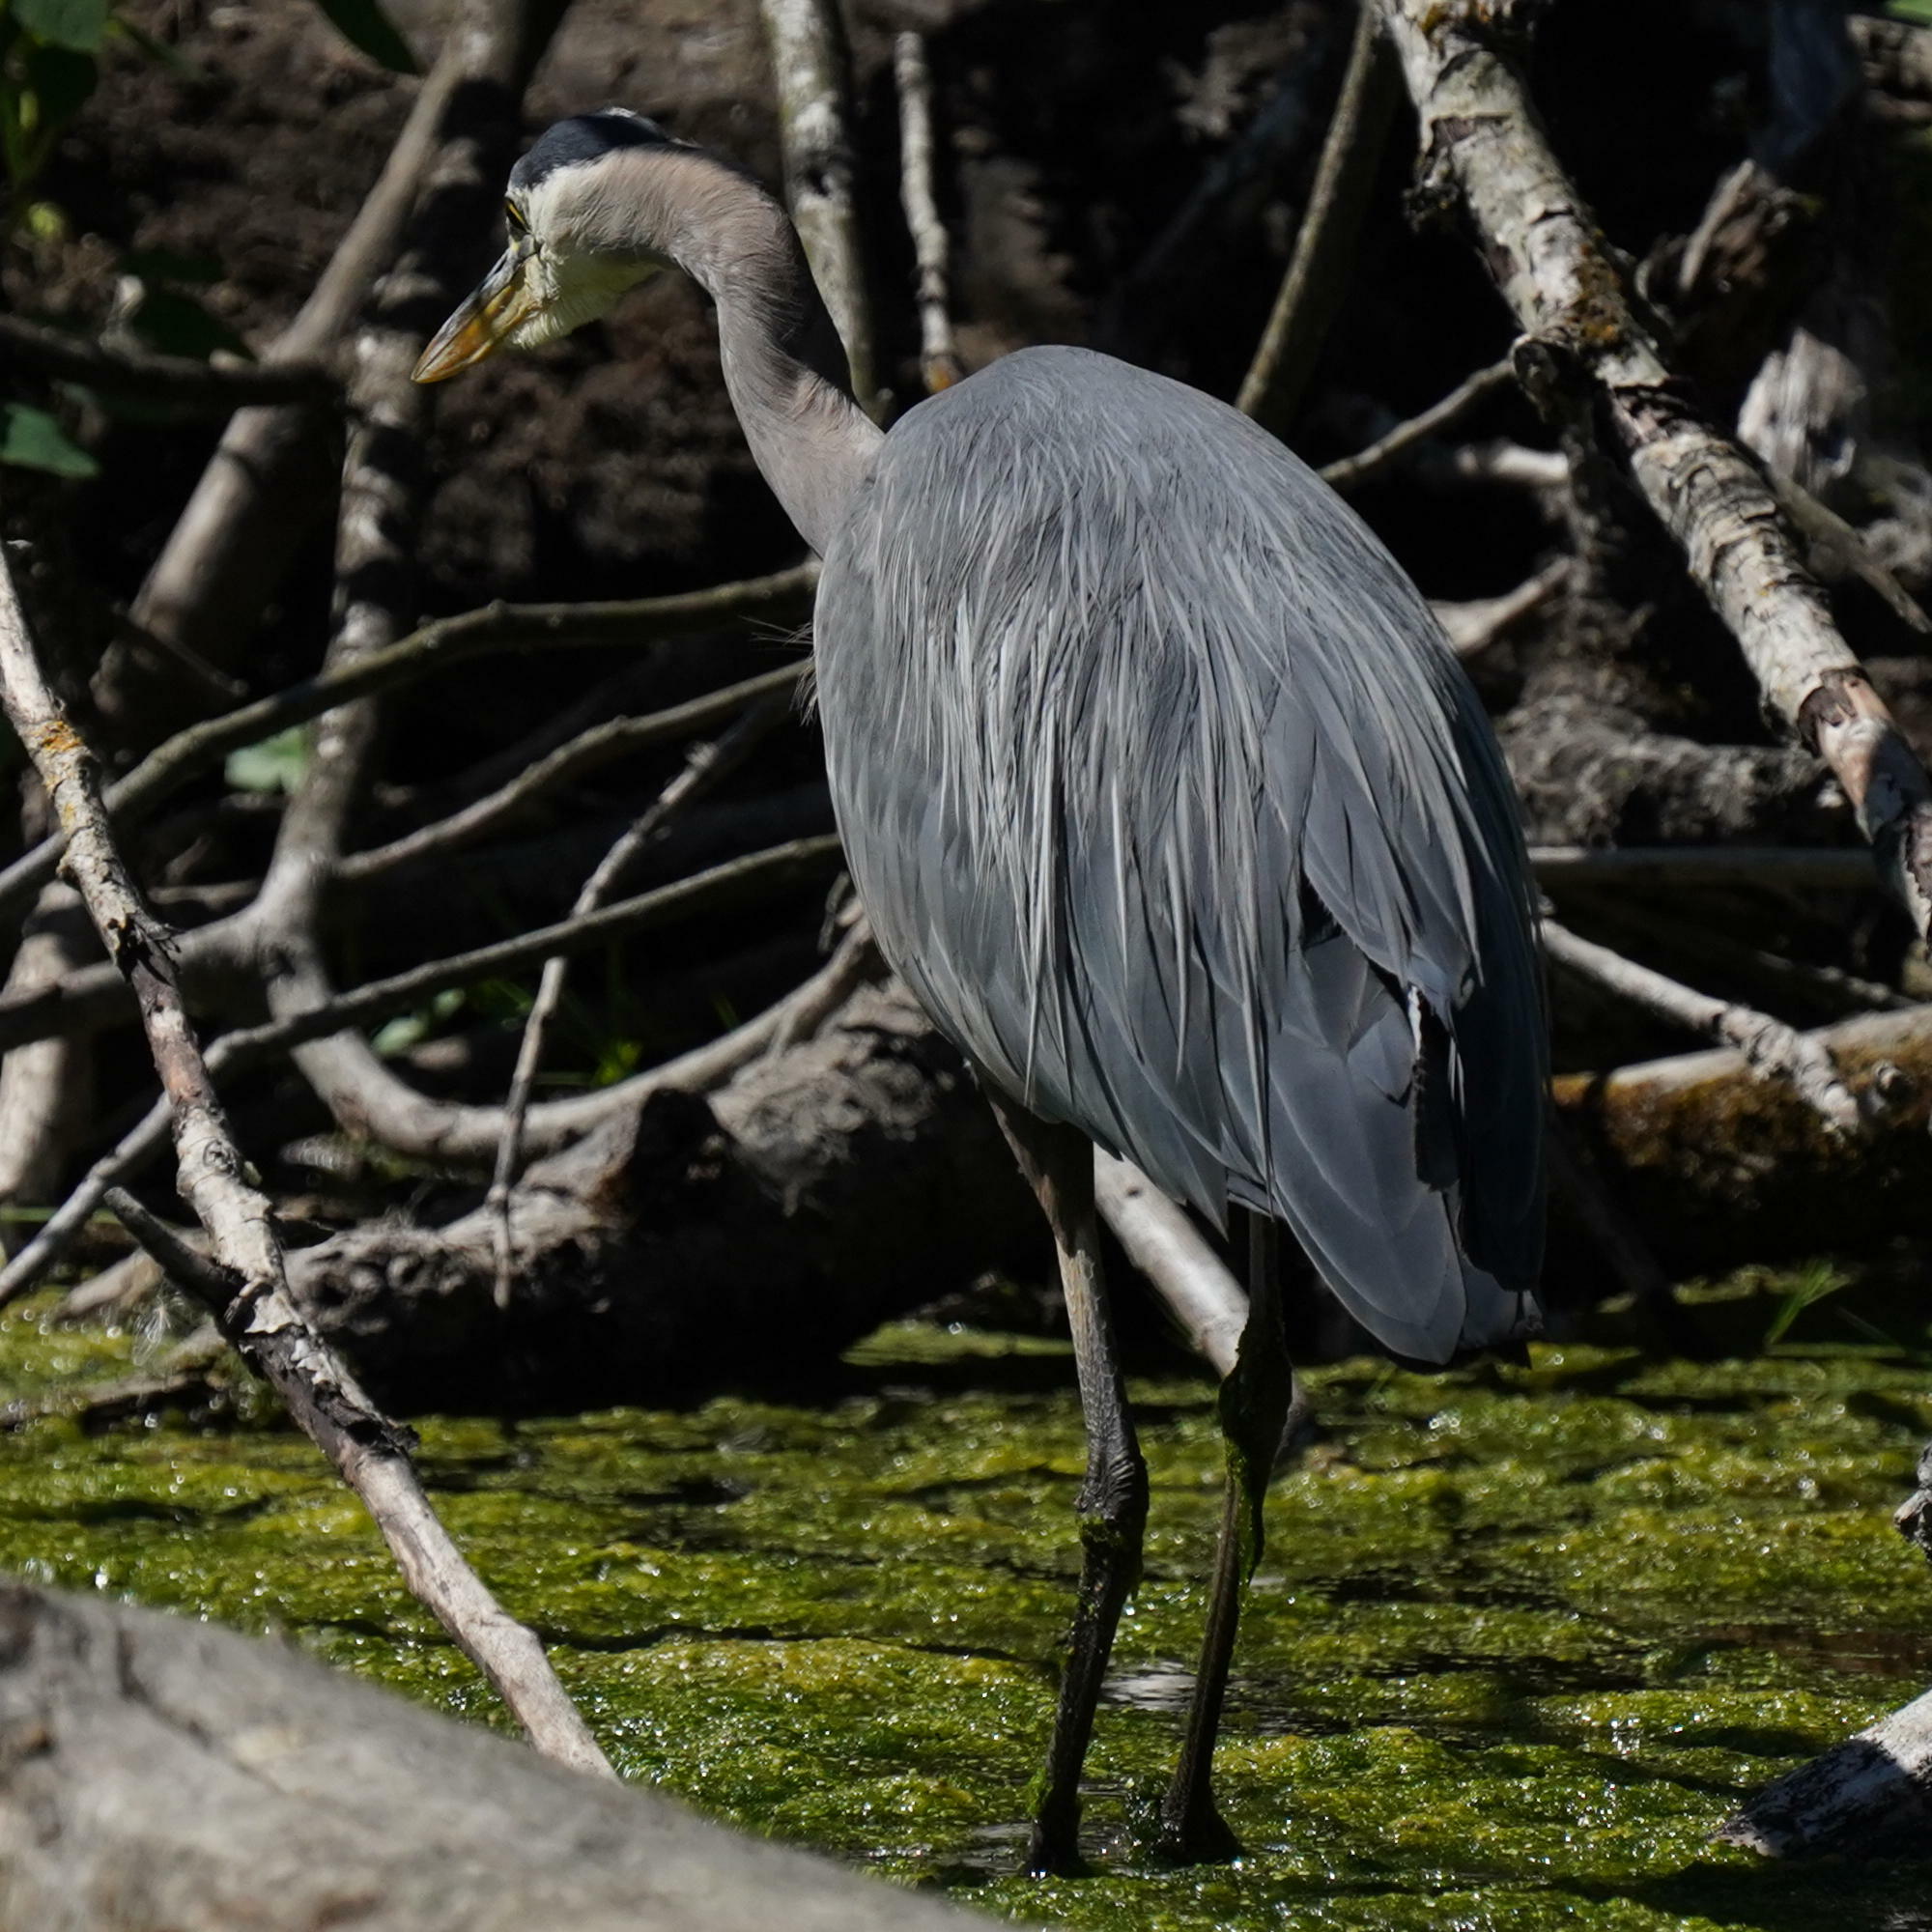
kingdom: Animalia
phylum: Chordata
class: Aves
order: Pelecaniformes
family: Ardeidae
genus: Ardea
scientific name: Ardea herodias
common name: Great blue heron
